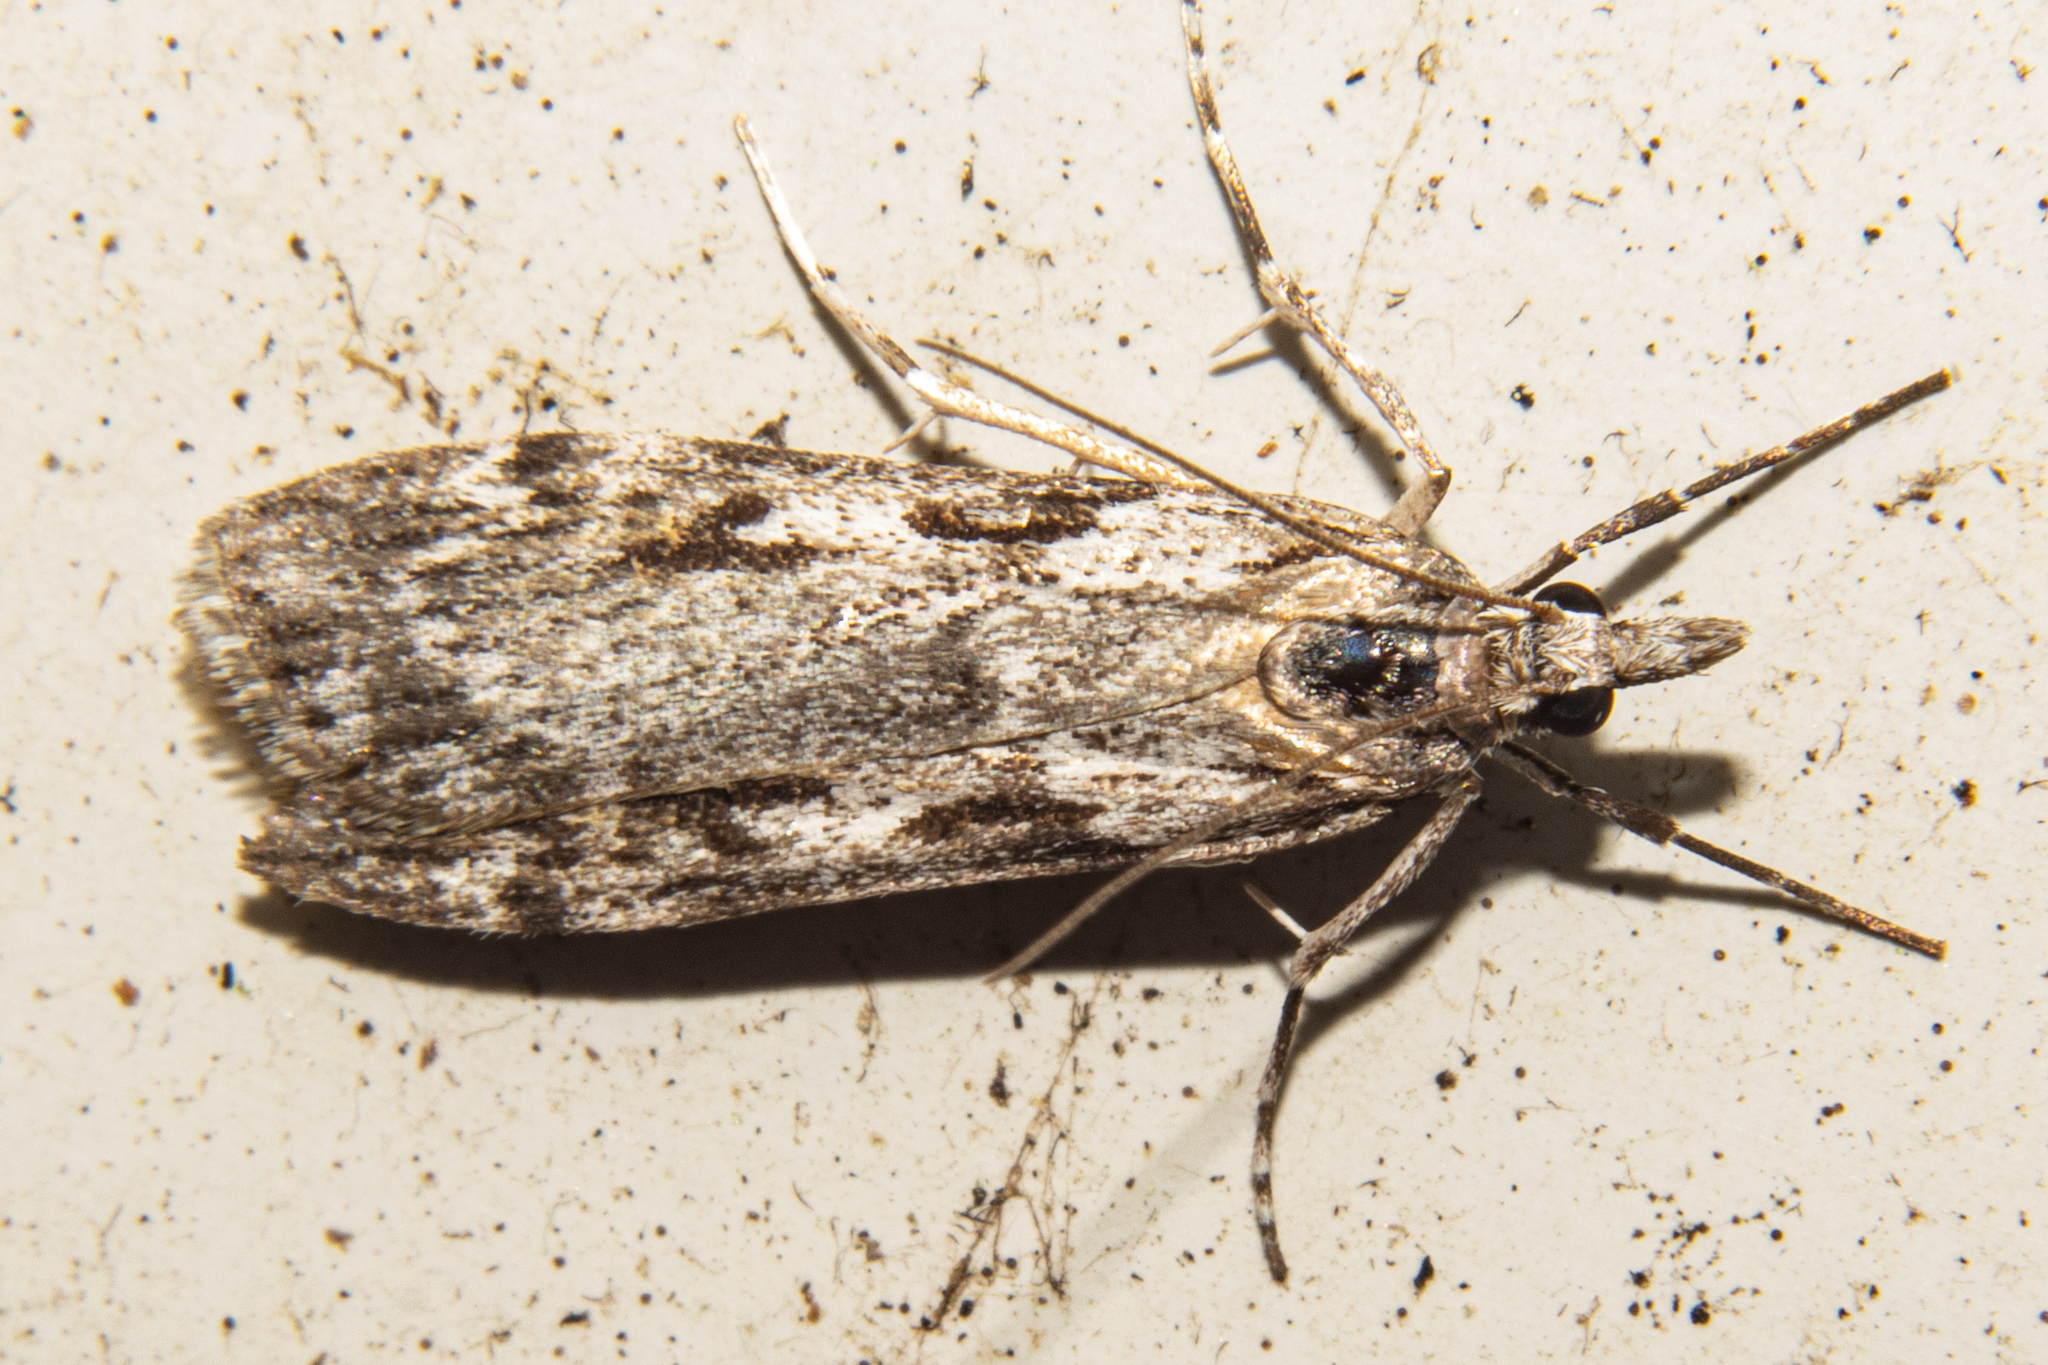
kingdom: Animalia
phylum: Arthropoda
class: Insecta
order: Lepidoptera
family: Crambidae
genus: Scoparia
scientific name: Scoparia halopis
